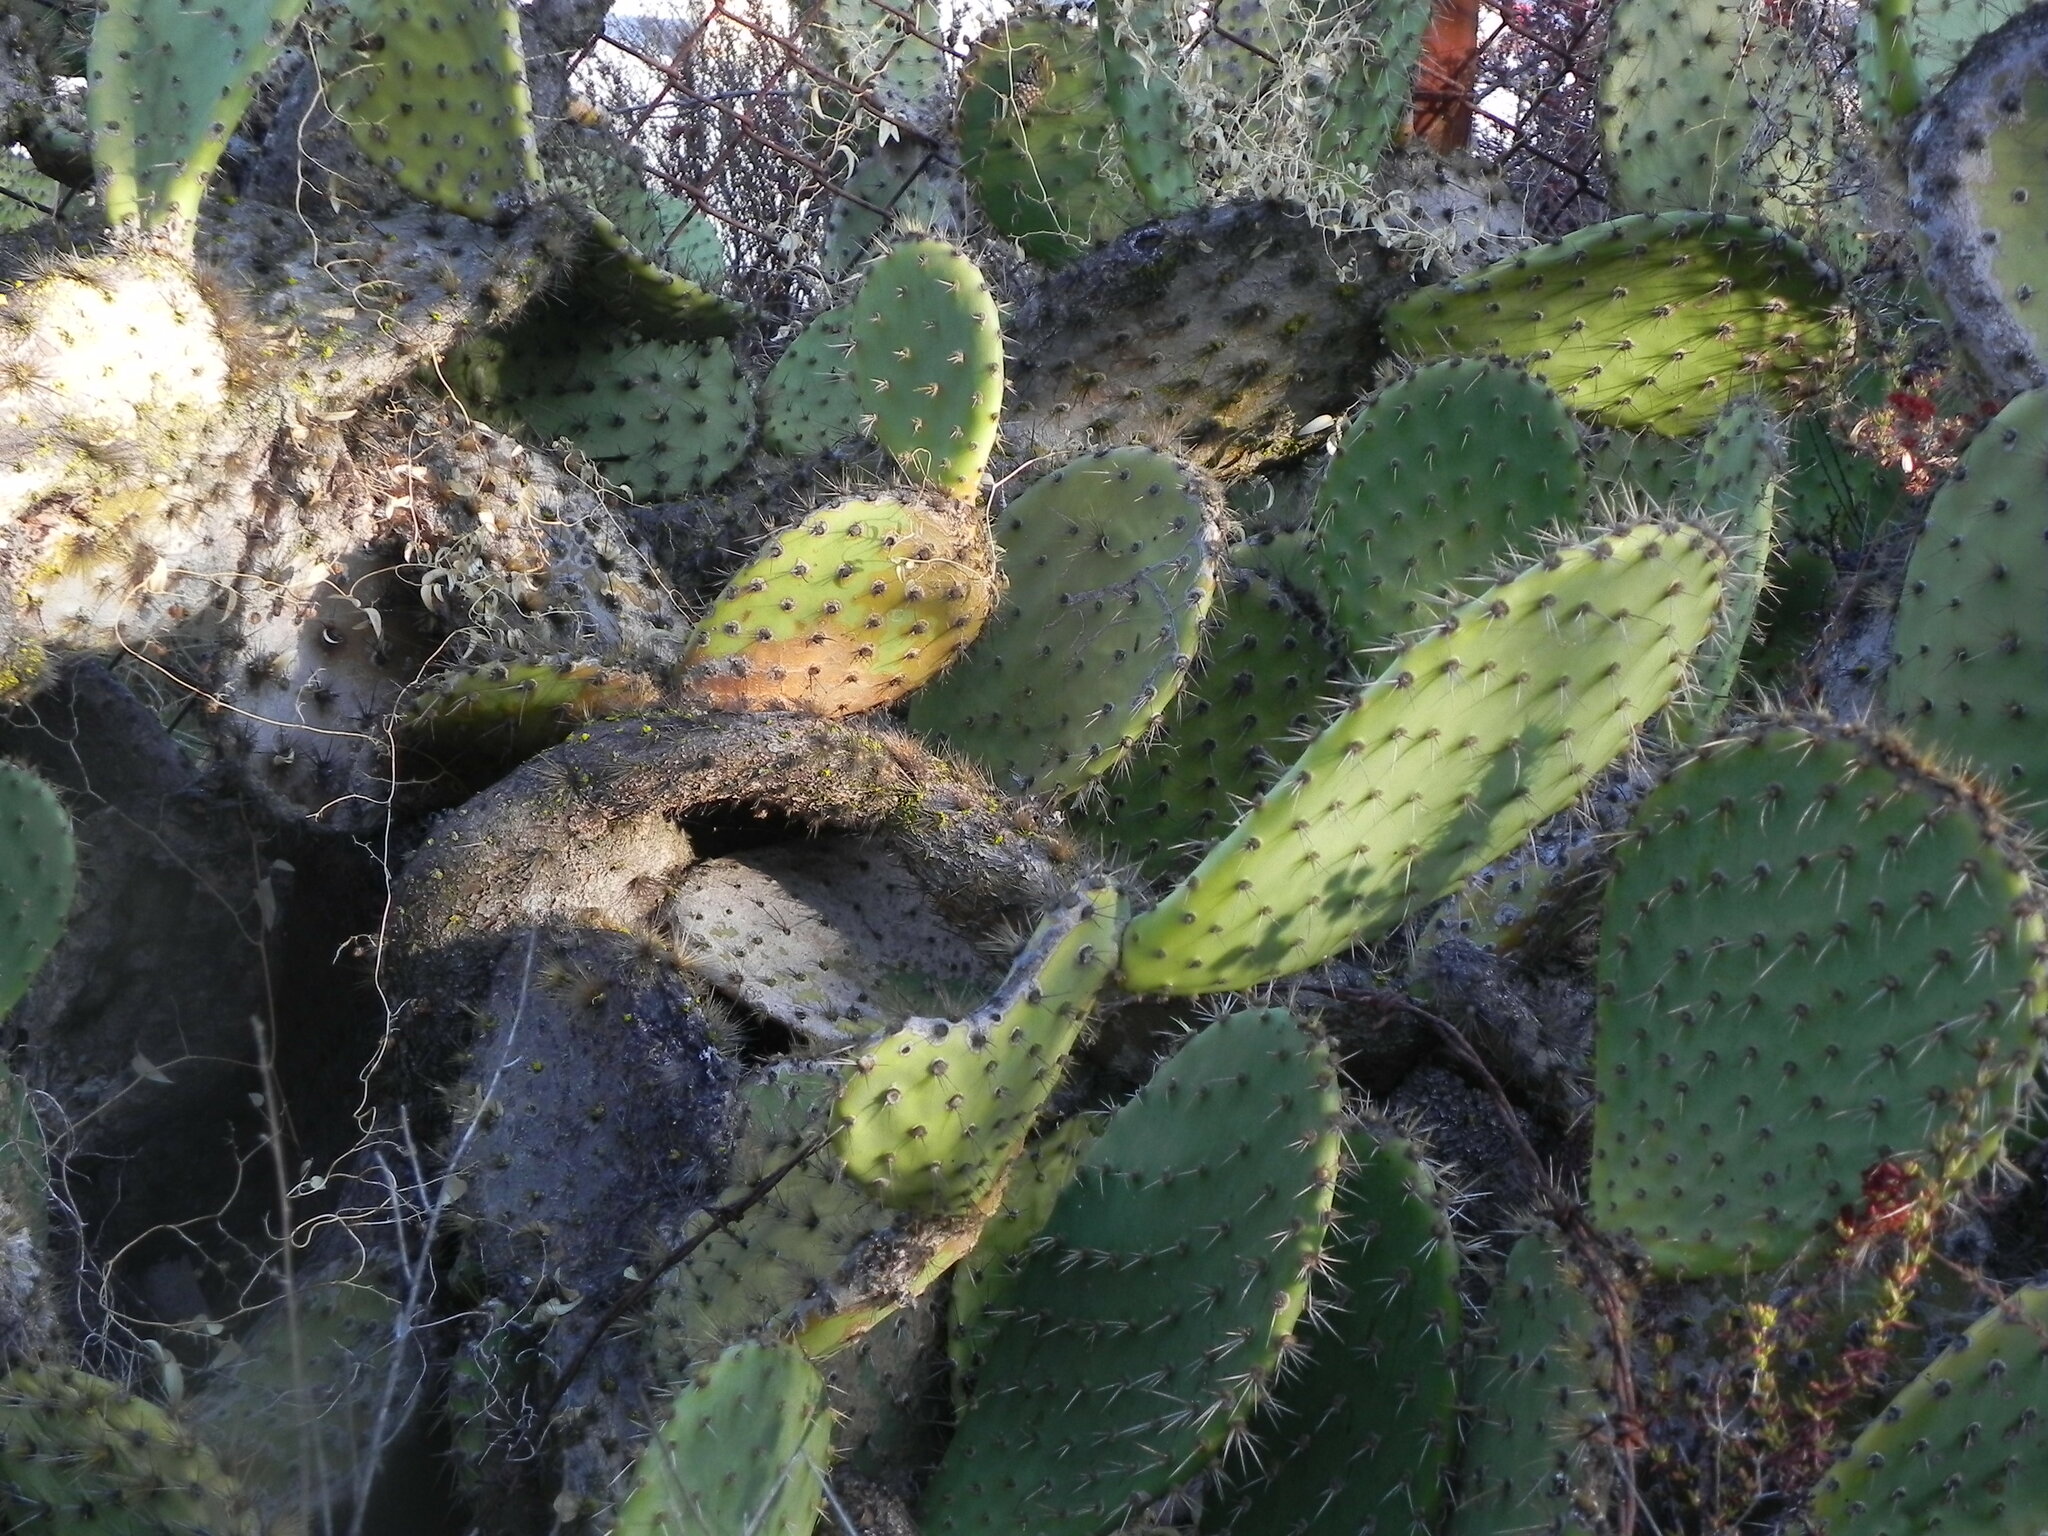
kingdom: Plantae
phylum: Tracheophyta
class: Magnoliopsida
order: Caryophyllales
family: Cactaceae
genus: Opuntia
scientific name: Opuntia oricola
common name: Chaparral prickly-pear
